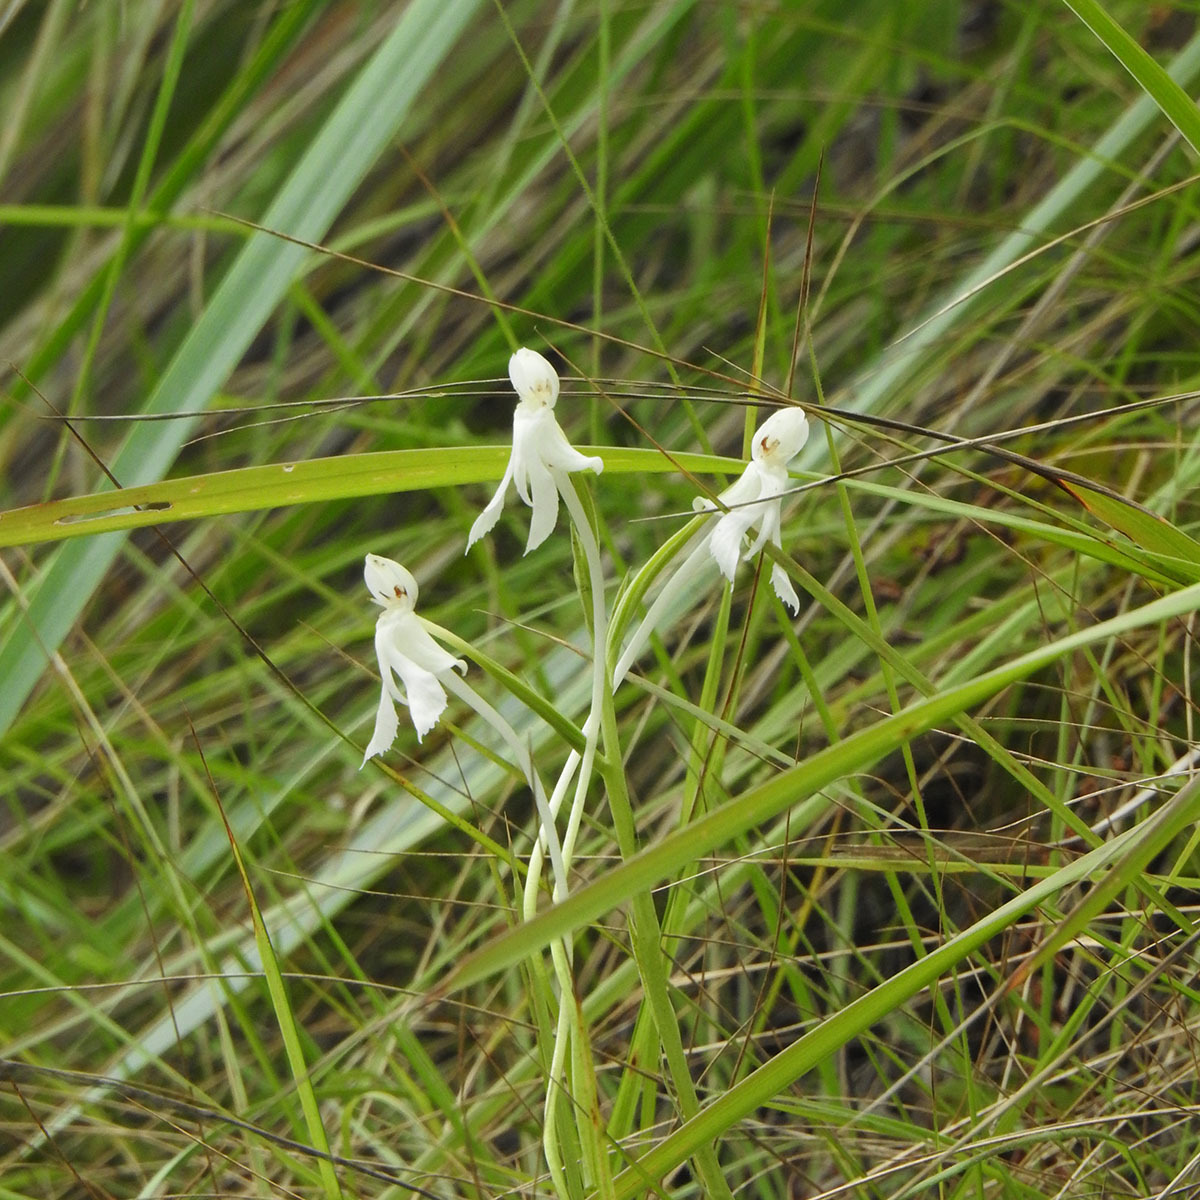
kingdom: Plantae
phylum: Tracheophyta
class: Liliopsida
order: Asparagales
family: Orchidaceae
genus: Habenaria
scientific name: Habenaria longicornu
